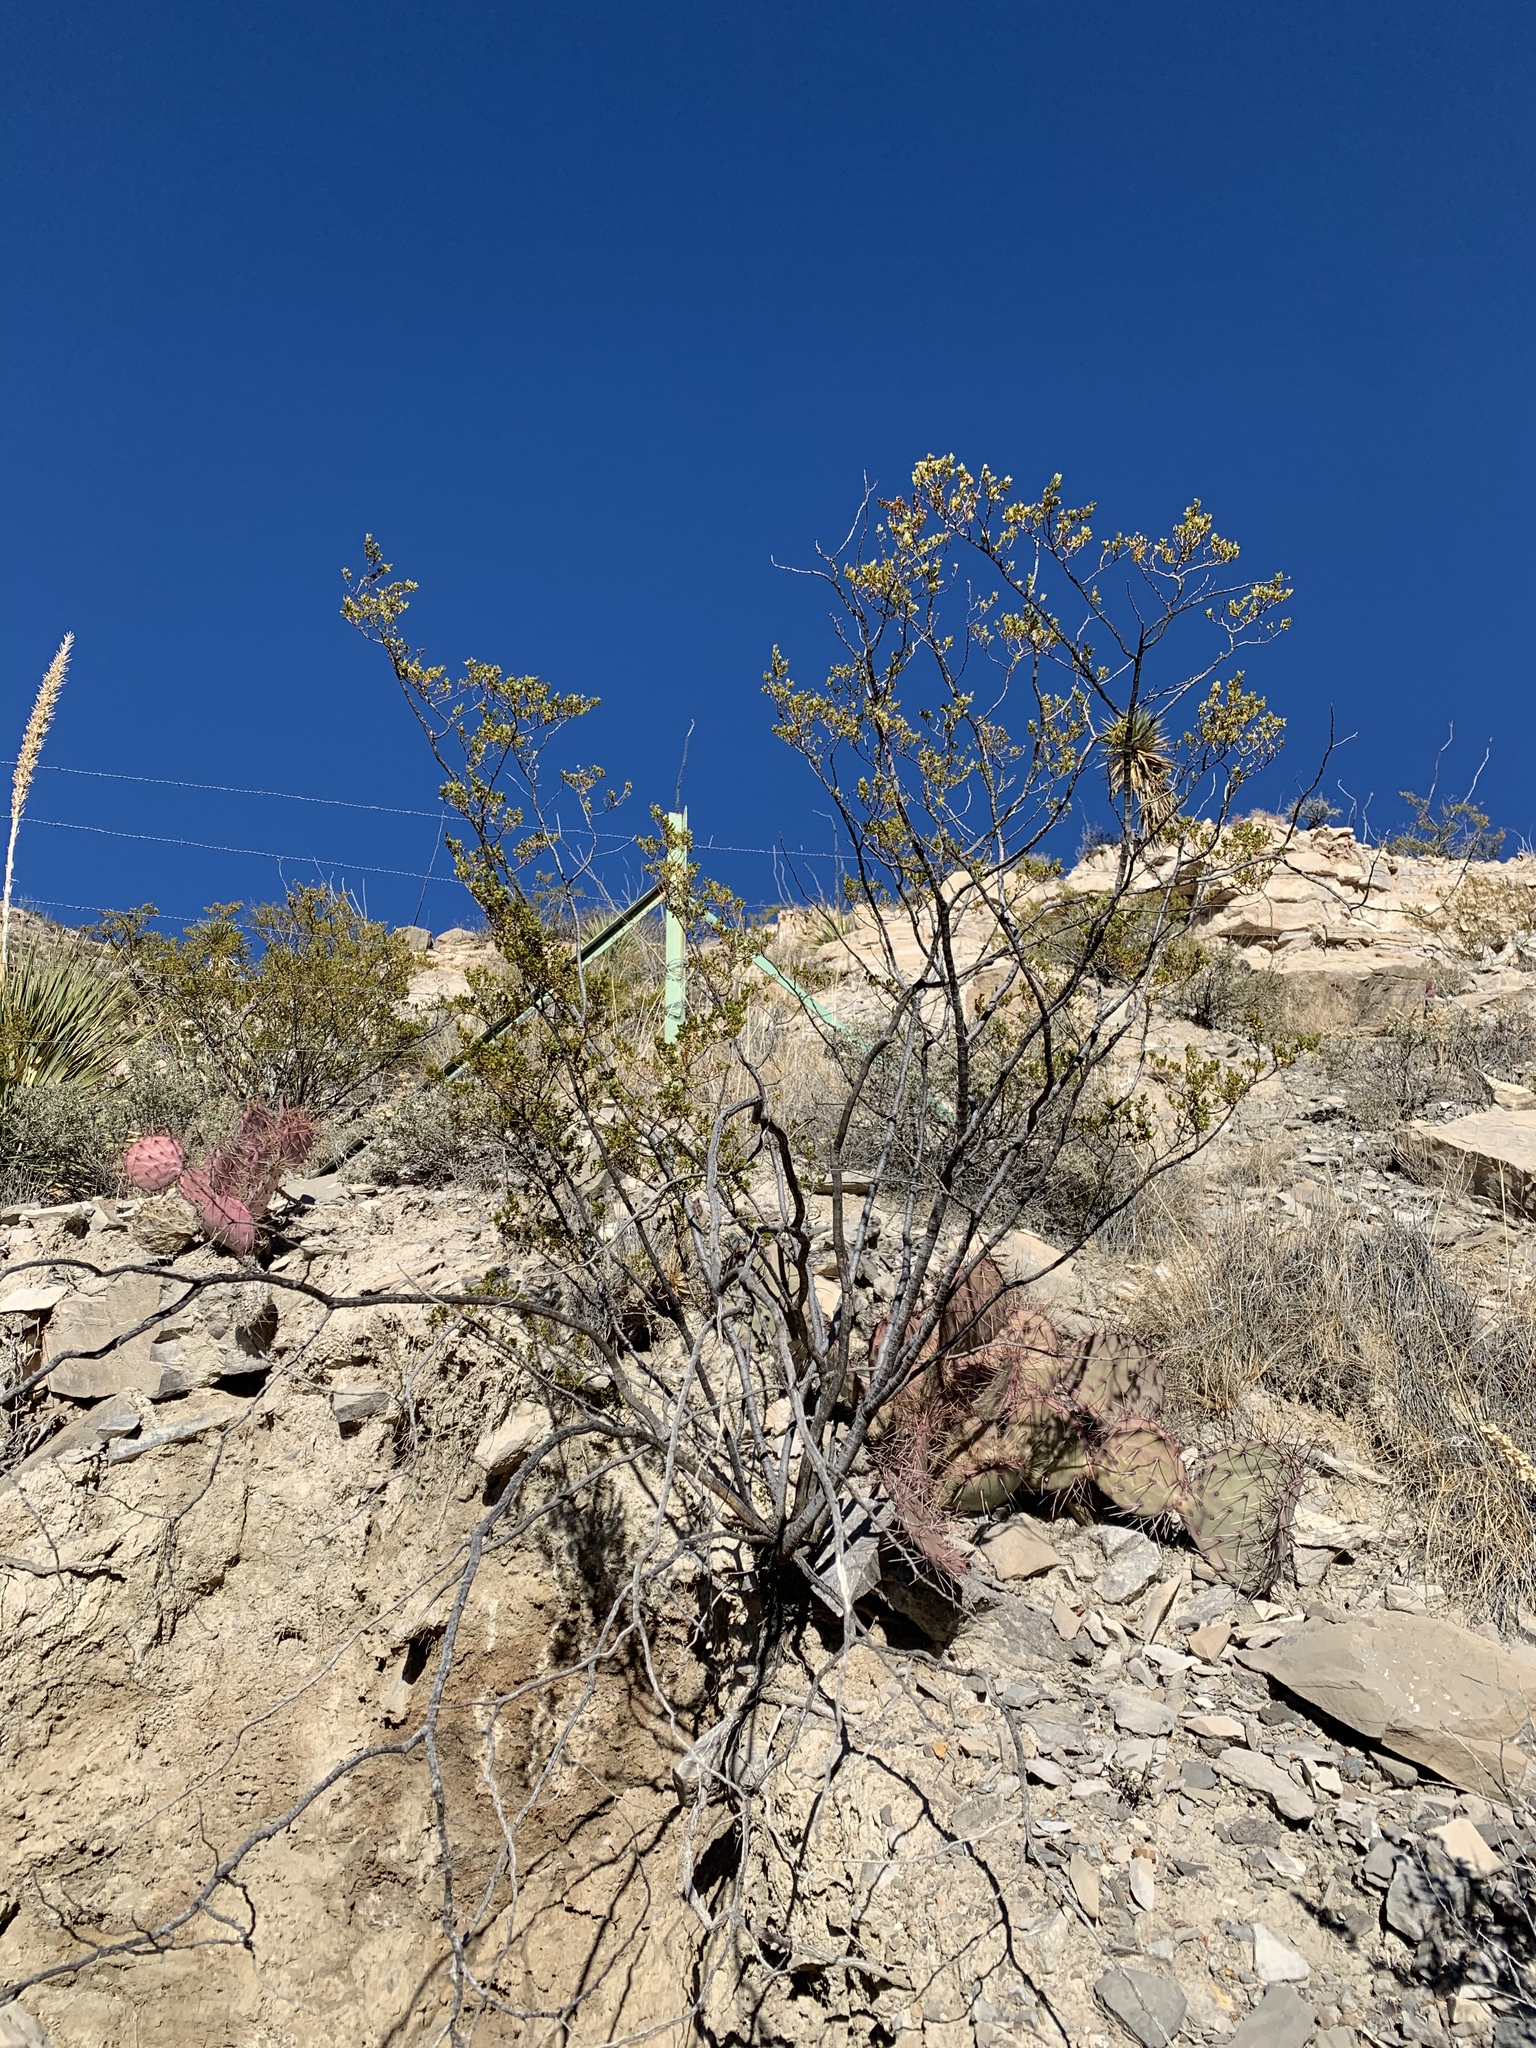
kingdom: Plantae
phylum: Tracheophyta
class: Magnoliopsida
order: Zygophyllales
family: Zygophyllaceae
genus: Larrea
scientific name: Larrea tridentata
